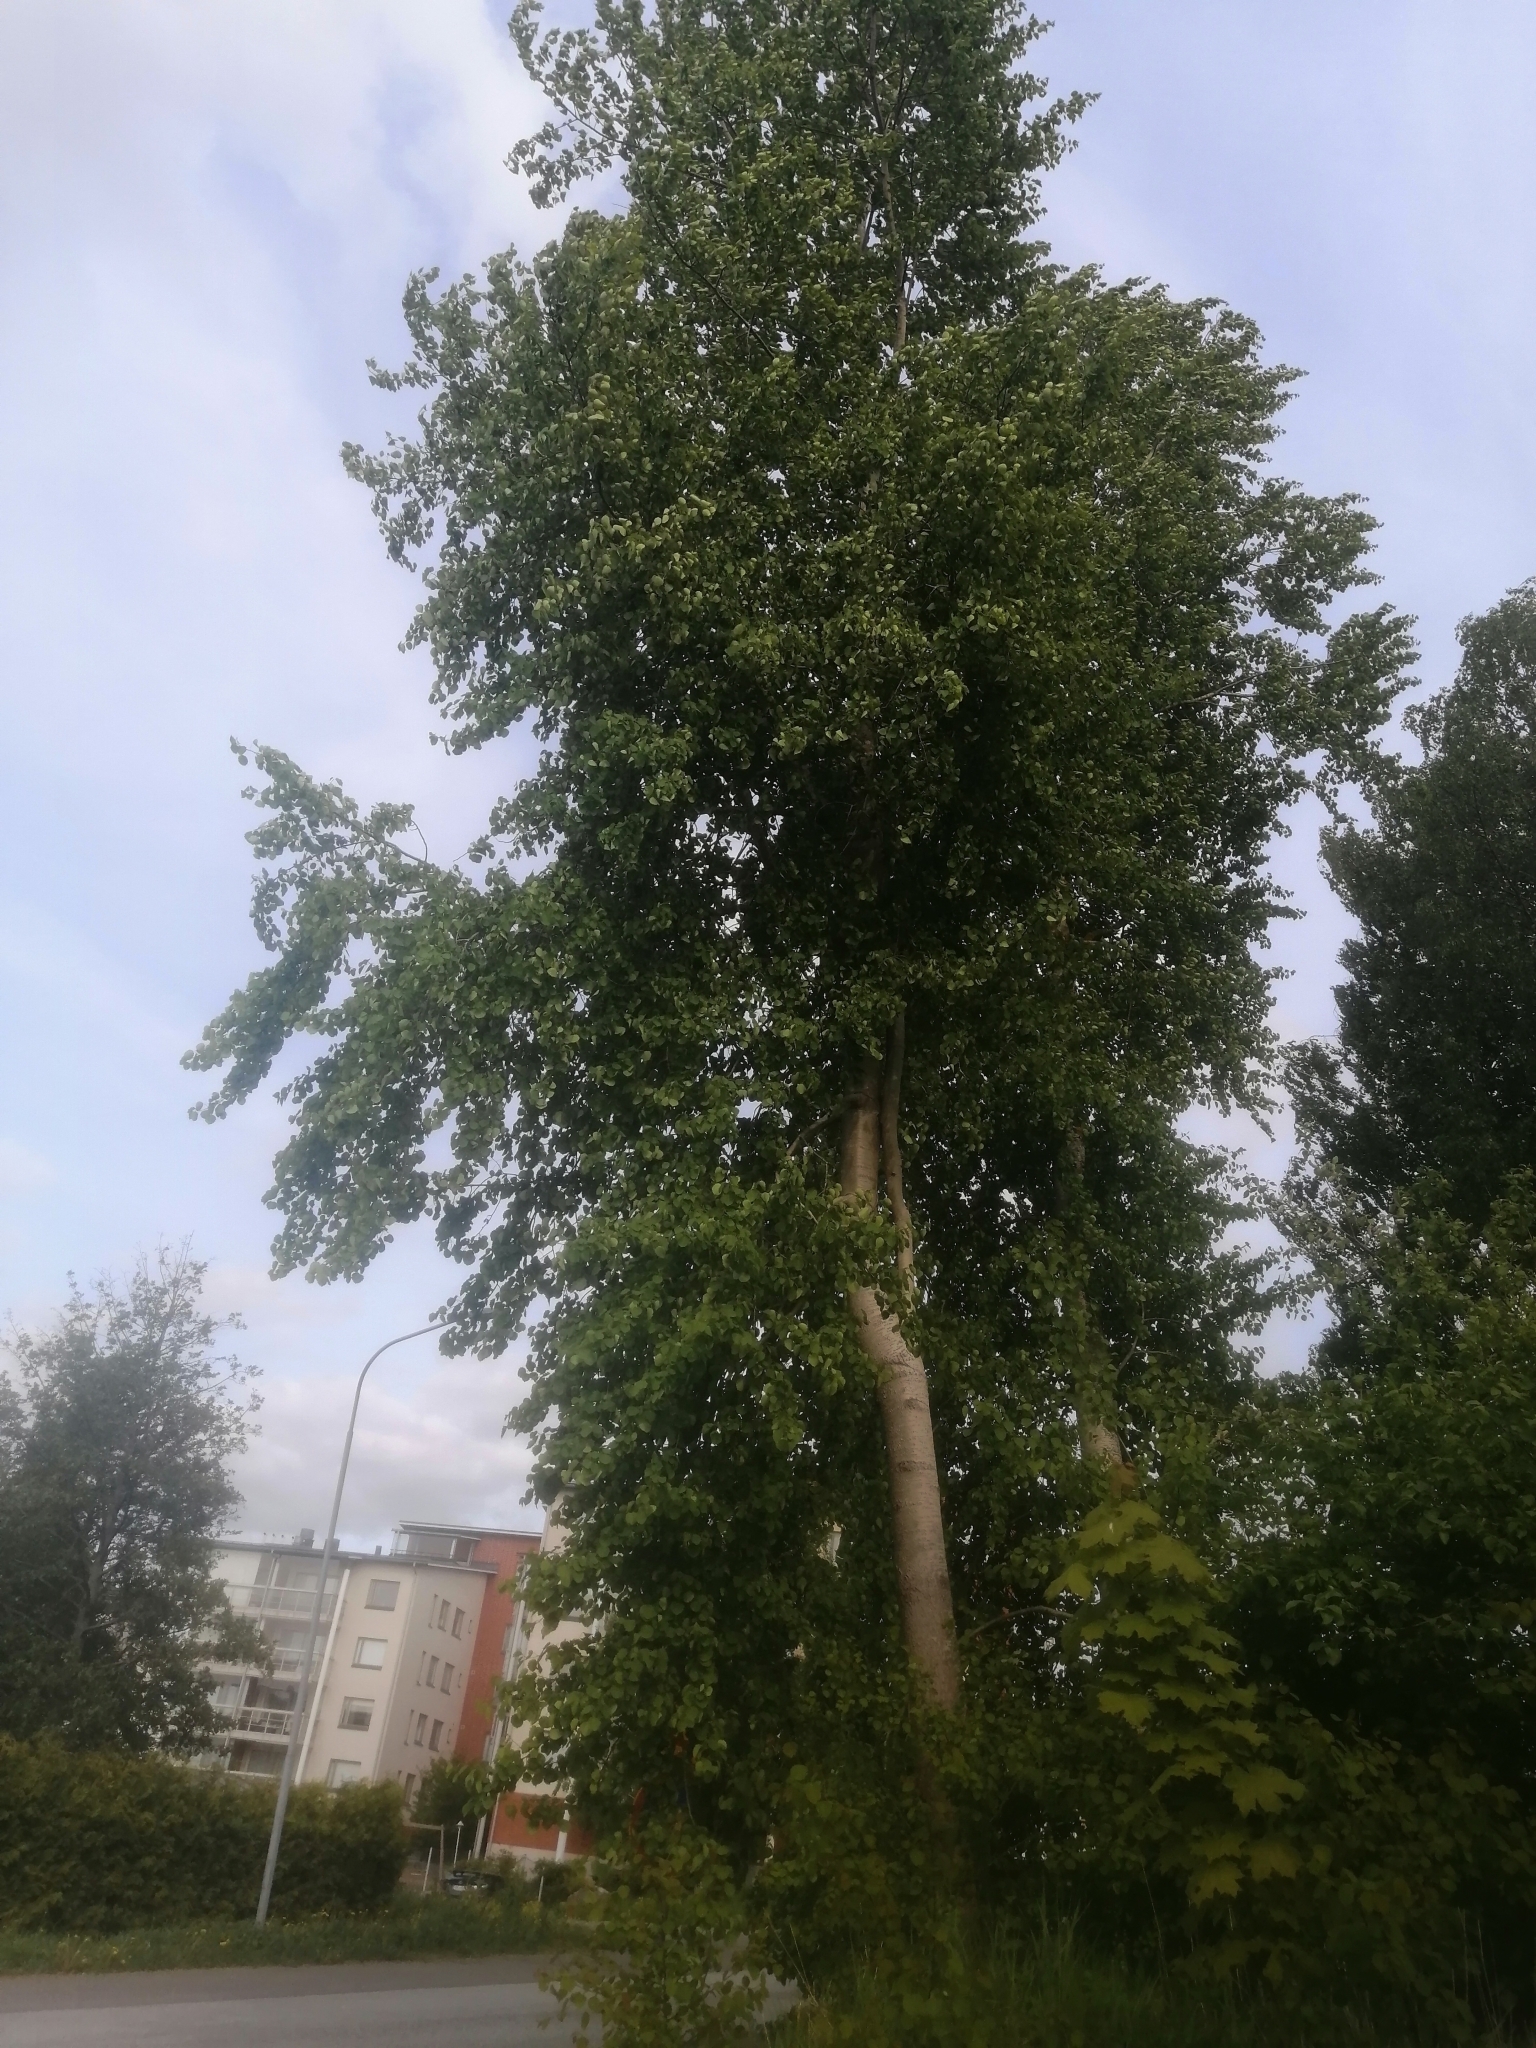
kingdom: Plantae
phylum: Tracheophyta
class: Magnoliopsida
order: Malpighiales
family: Salicaceae
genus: Populus
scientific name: Populus tremula
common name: European aspen
